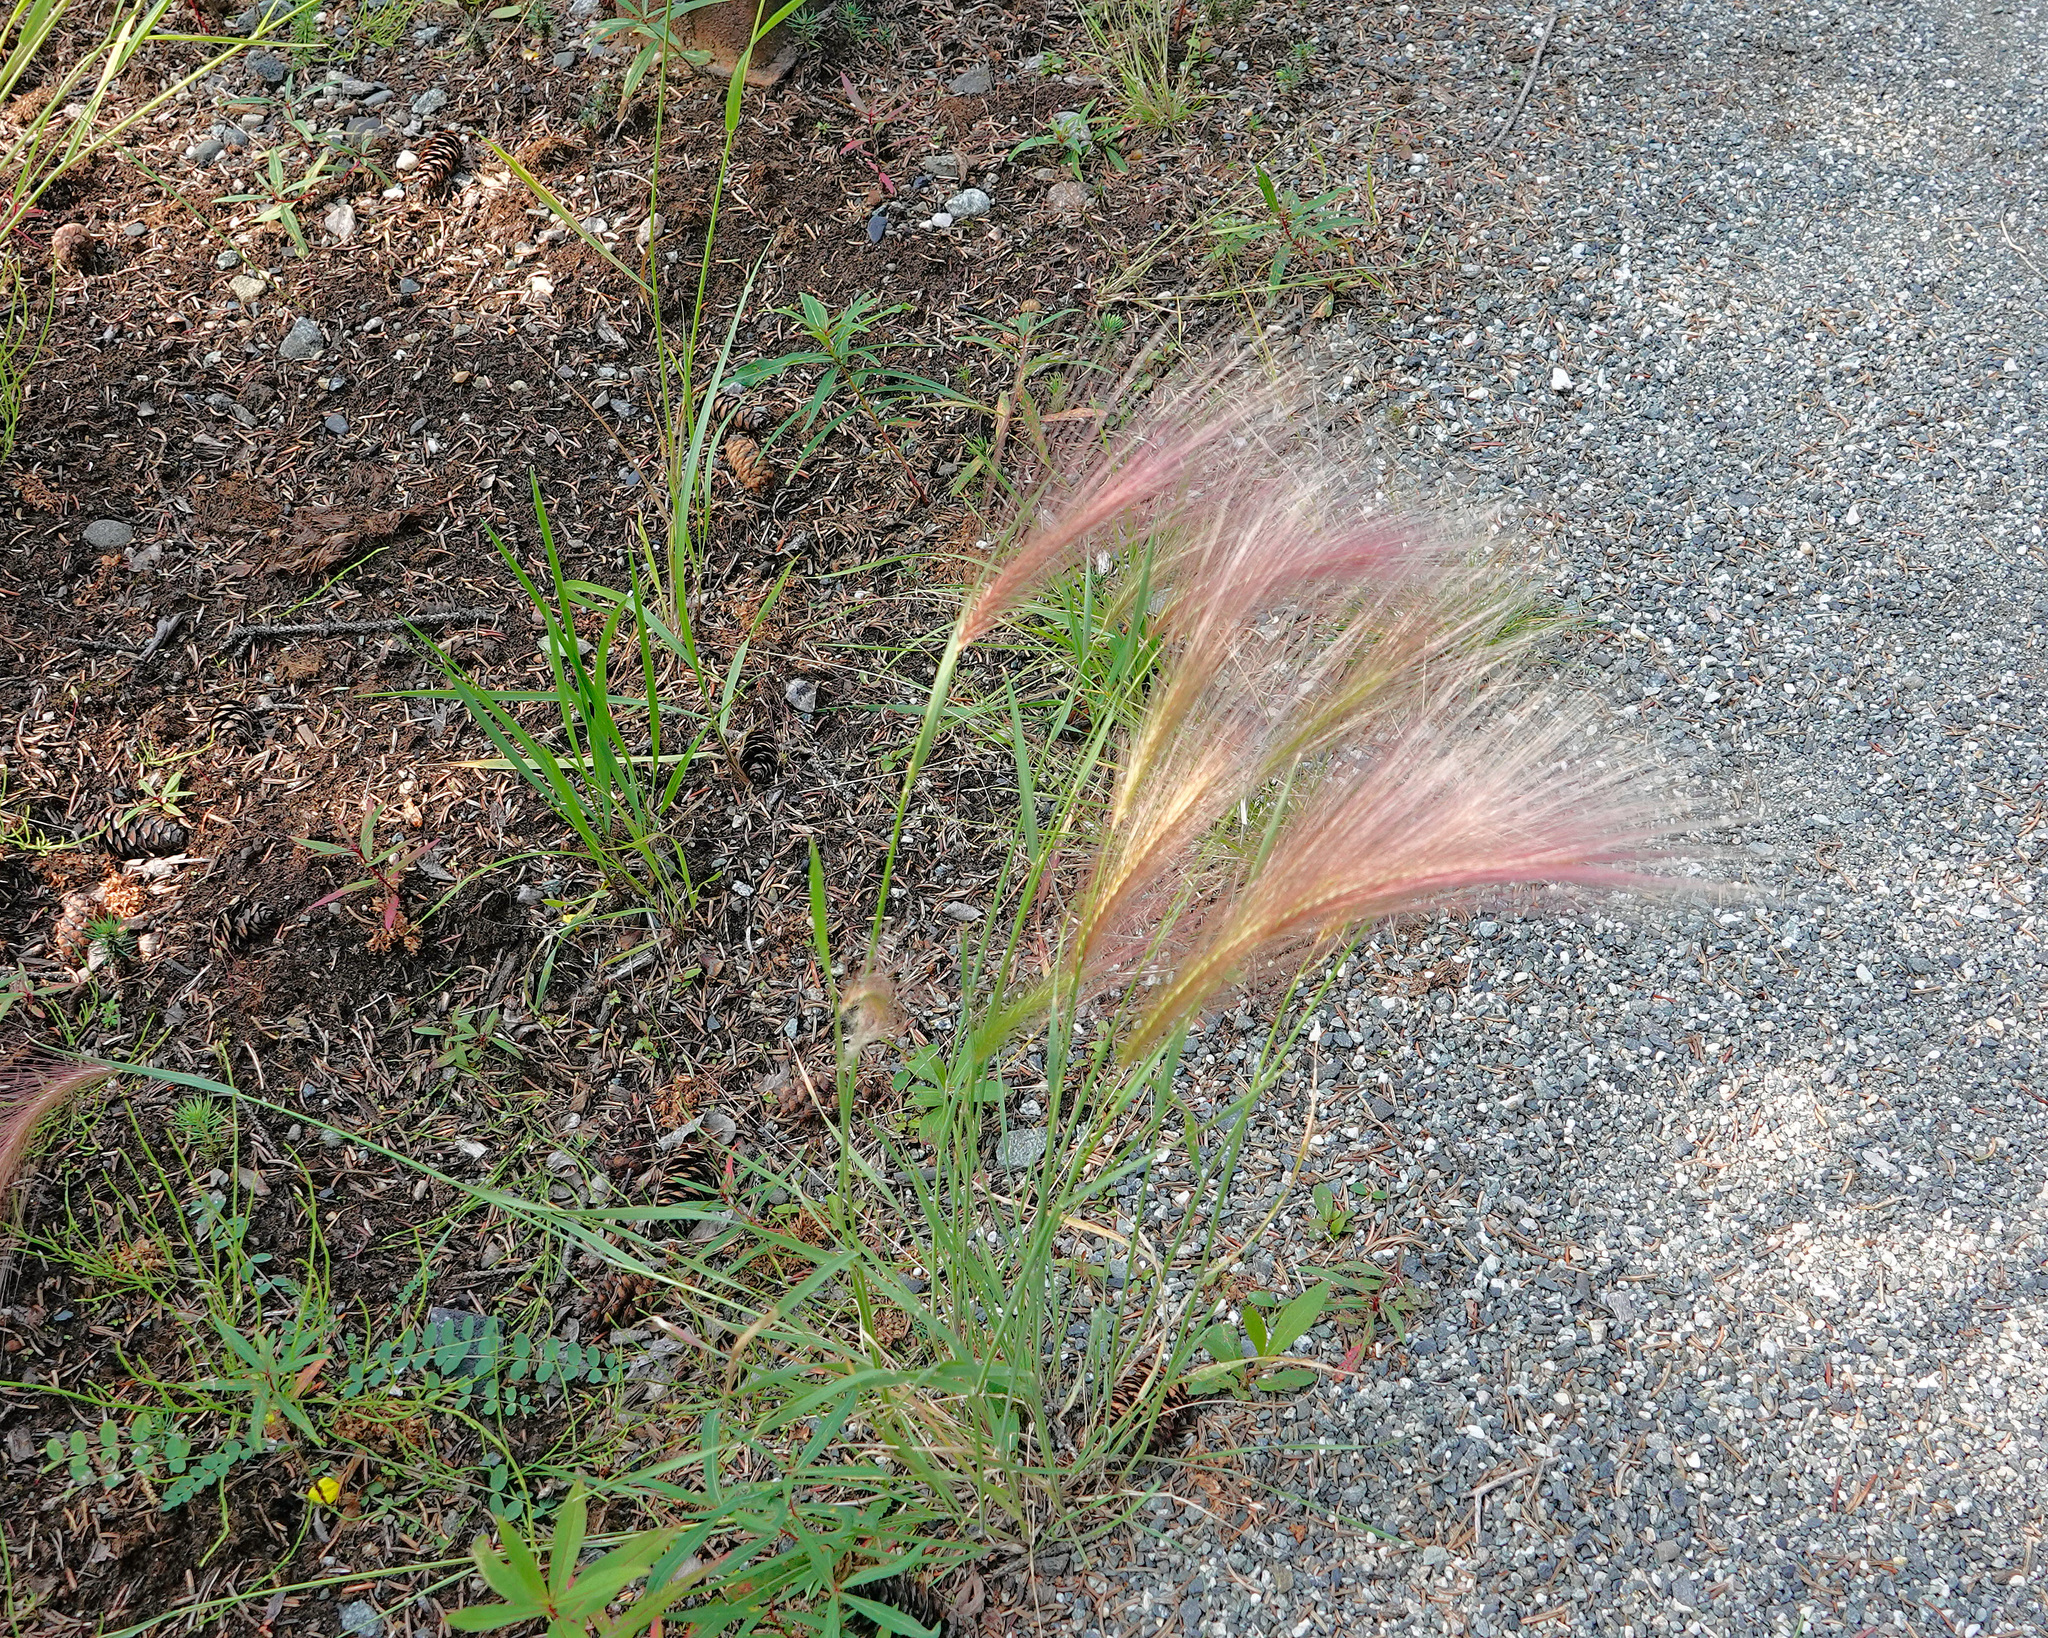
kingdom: Plantae
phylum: Tracheophyta
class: Liliopsida
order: Poales
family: Poaceae
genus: Hordeum
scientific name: Hordeum jubatum
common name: Foxtail barley
